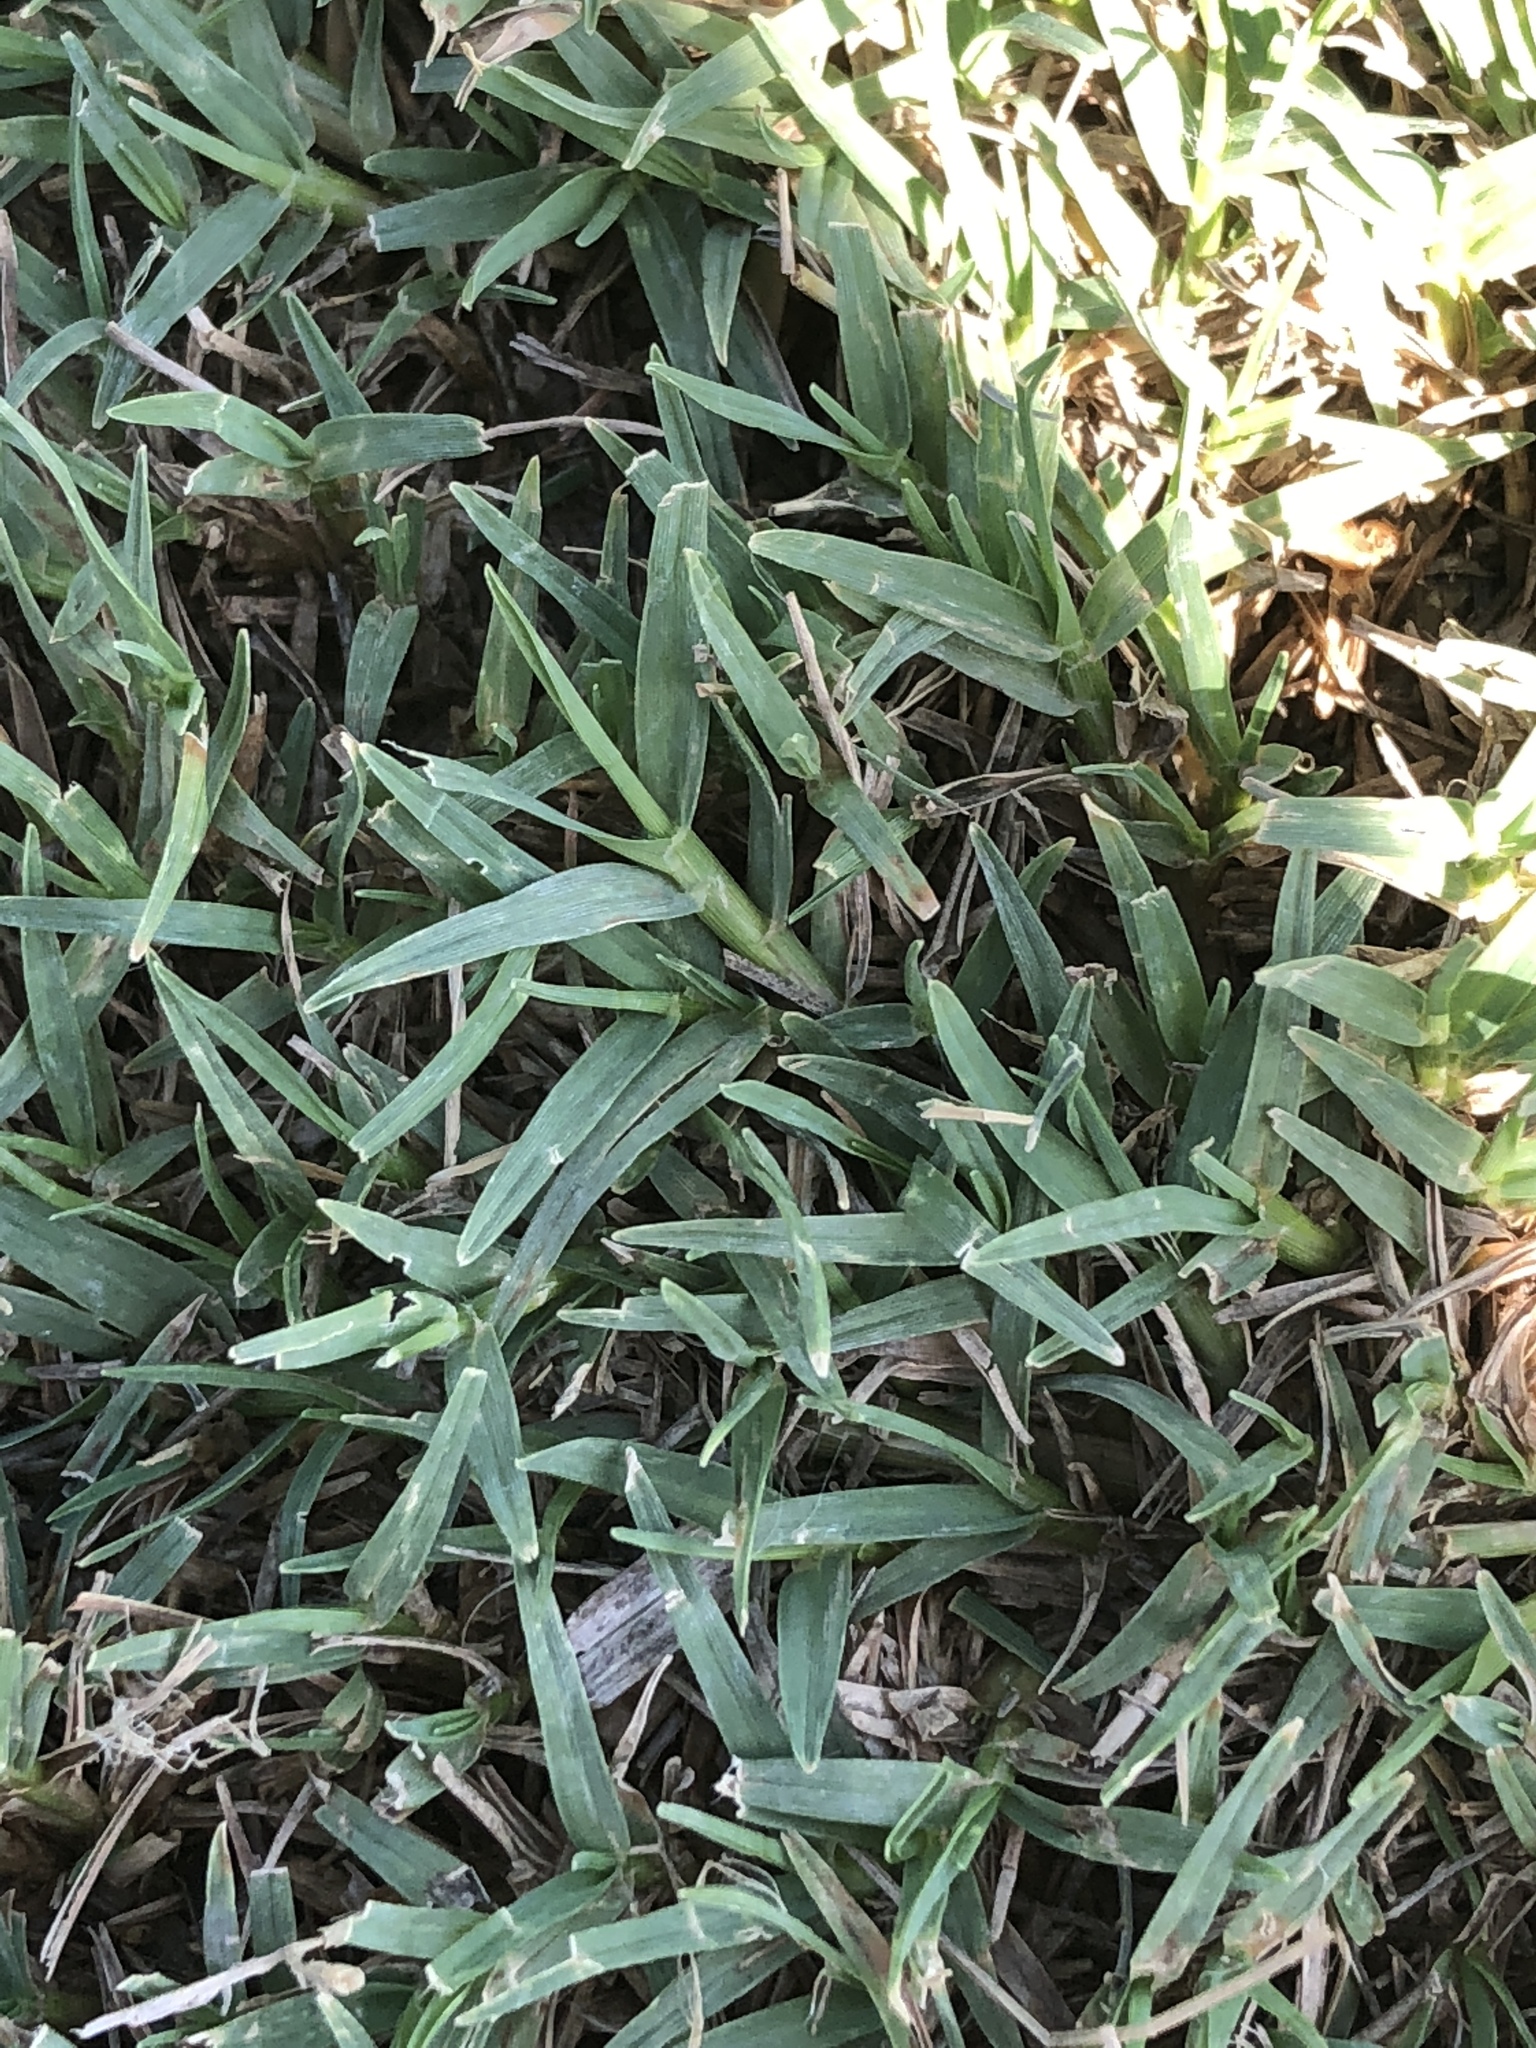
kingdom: Plantae
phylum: Tracheophyta
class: Liliopsida
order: Poales
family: Poaceae
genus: Axonopus
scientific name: Axonopus compressus
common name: American carpet grass
